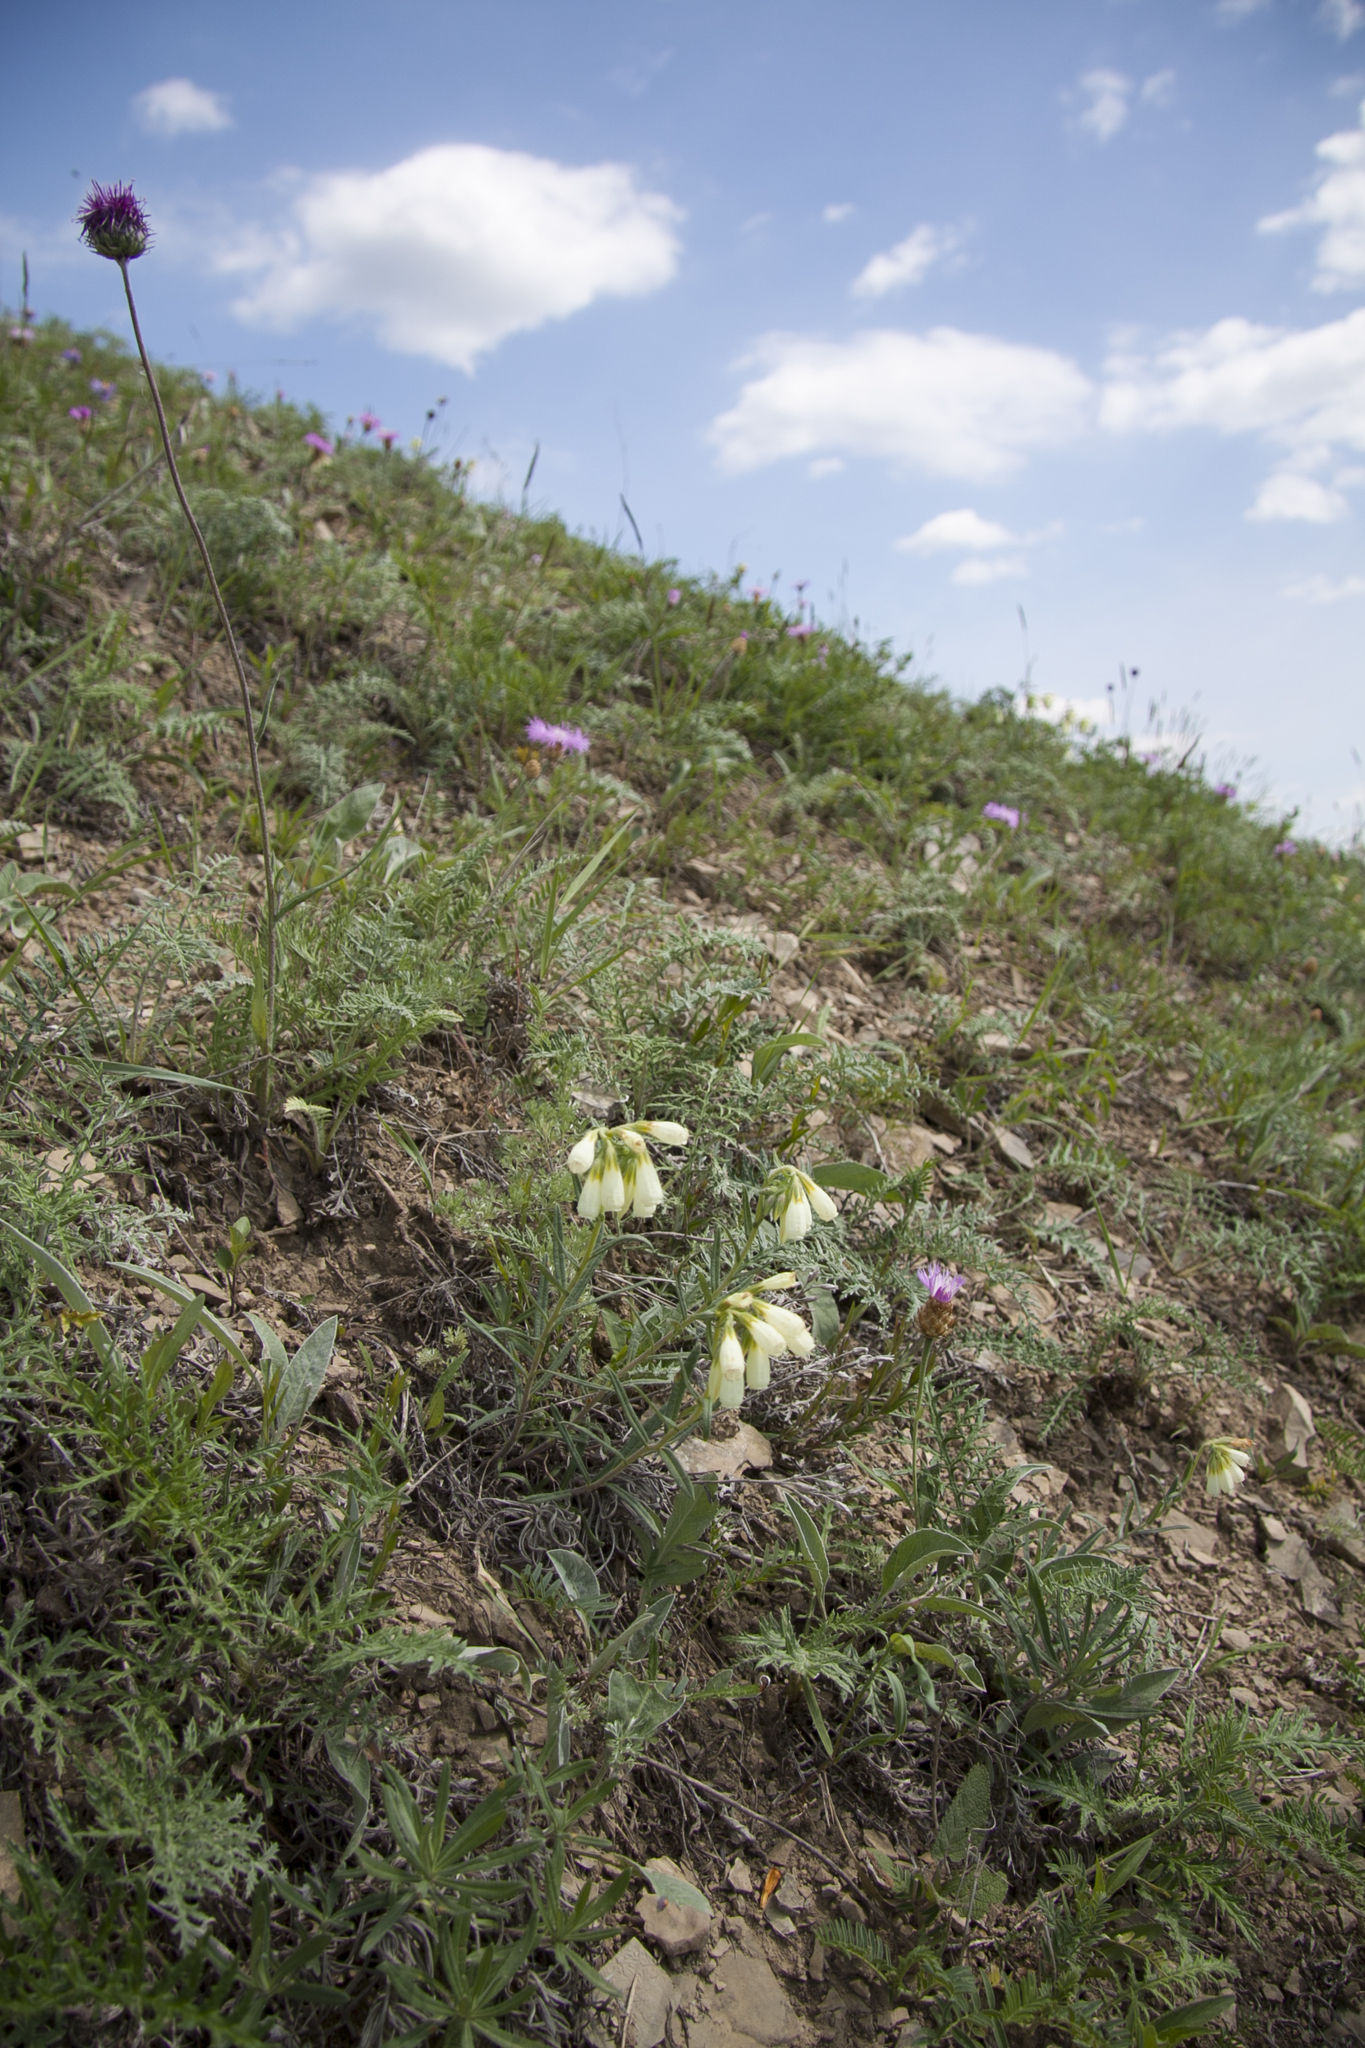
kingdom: Plantae
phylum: Tracheophyta
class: Magnoliopsida
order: Boraginales
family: Boraginaceae
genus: Onosma
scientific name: Onosma simplicissima
